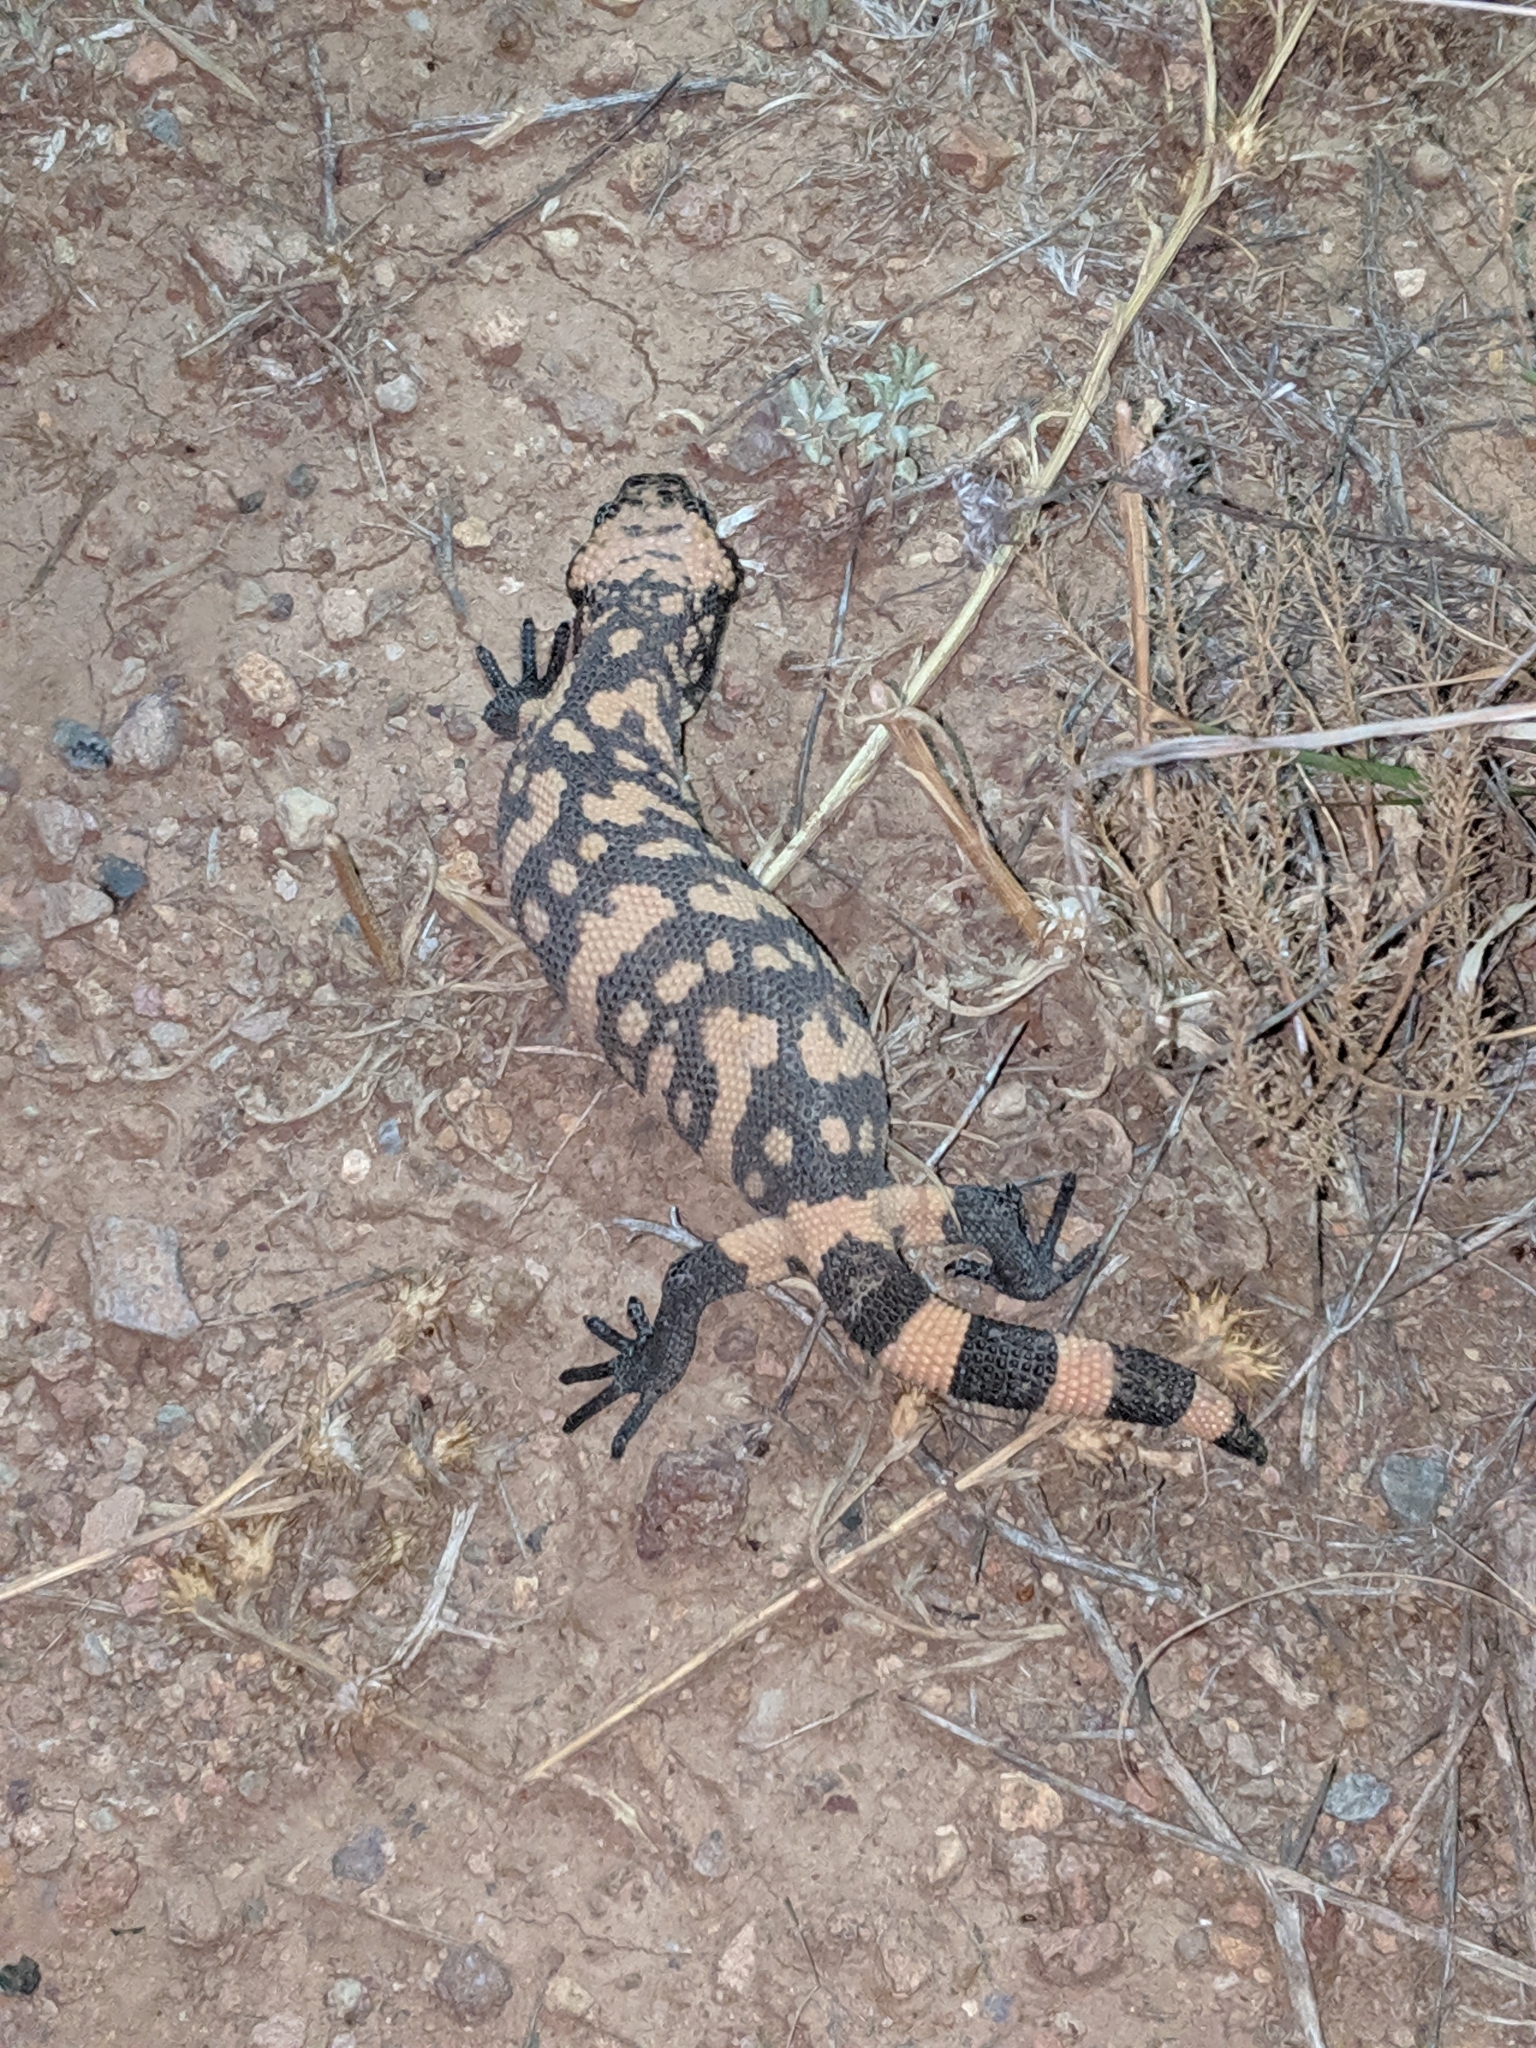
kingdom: Animalia
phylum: Chordata
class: Squamata
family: Helodermatidae
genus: Heloderma
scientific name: Heloderma suspectum
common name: Gila monster
